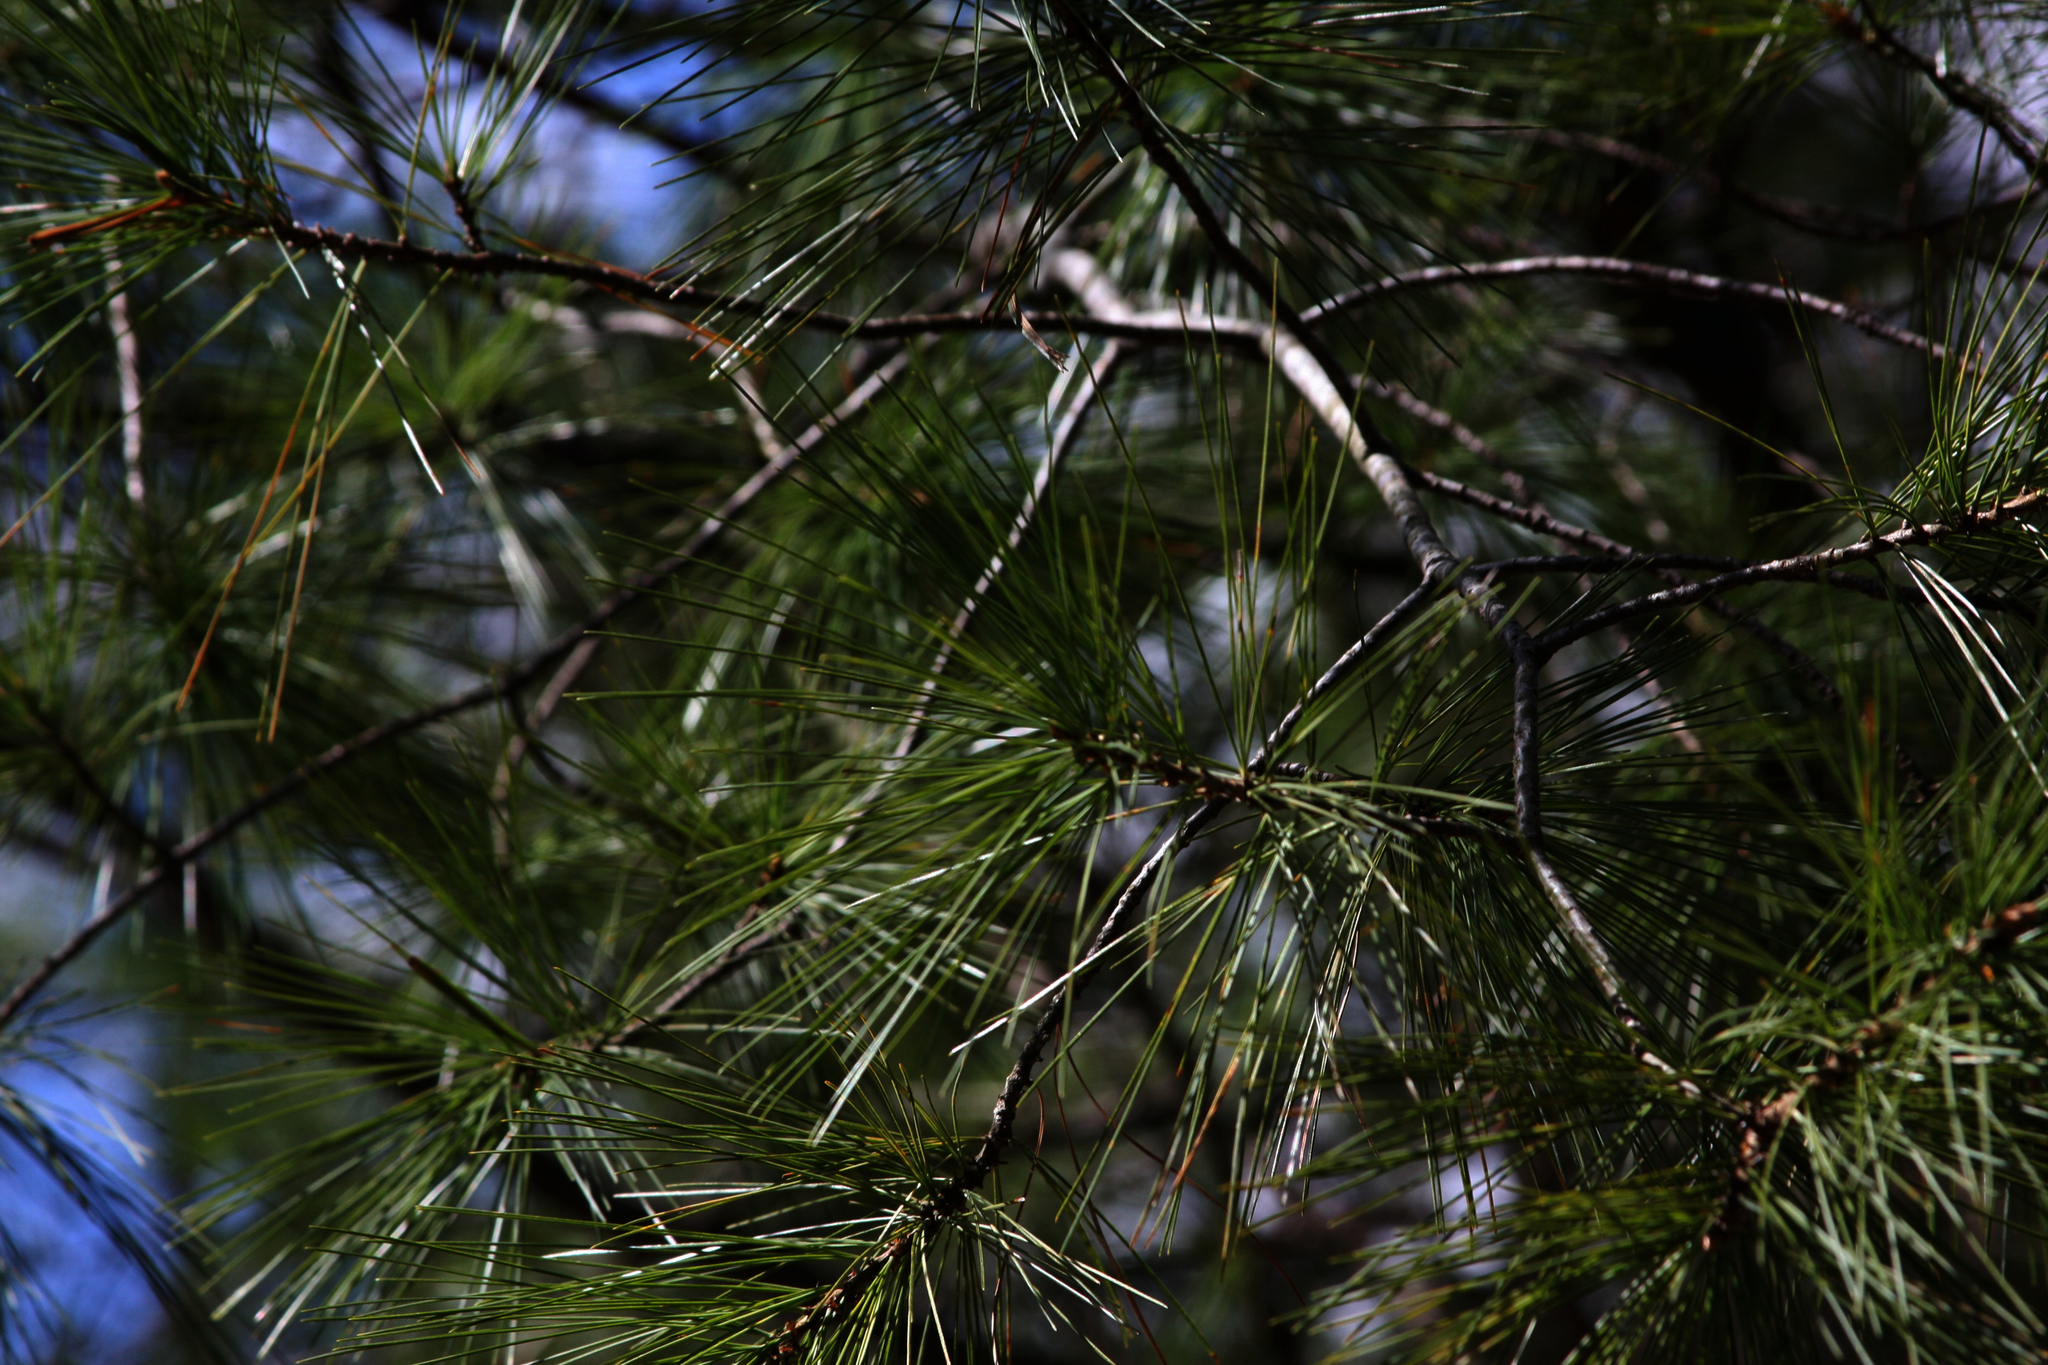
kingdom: Plantae
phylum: Tracheophyta
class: Pinopsida
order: Pinales
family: Pinaceae
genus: Pinus
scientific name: Pinus strobus
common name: Weymouth pine
